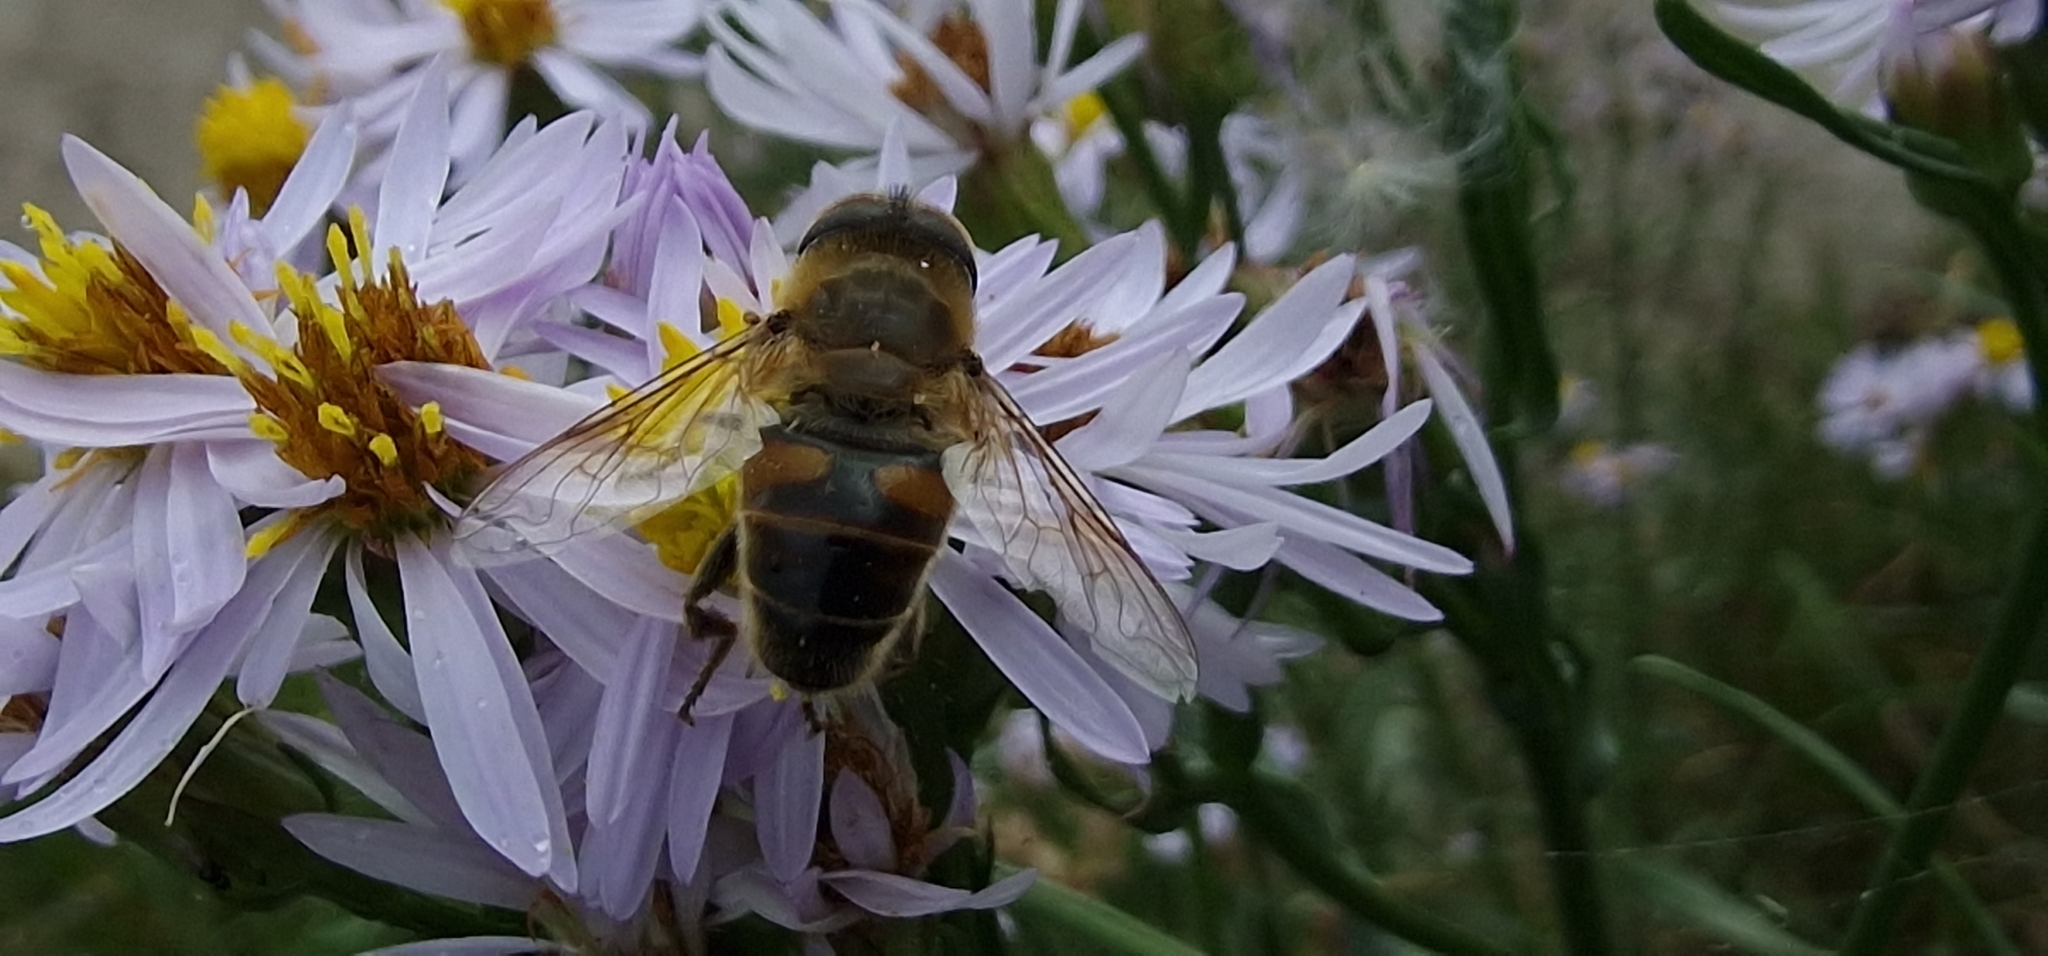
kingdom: Animalia
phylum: Arthropoda
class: Insecta
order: Diptera
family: Syrphidae
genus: Eristalis
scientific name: Eristalis tenax
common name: Drone fly
